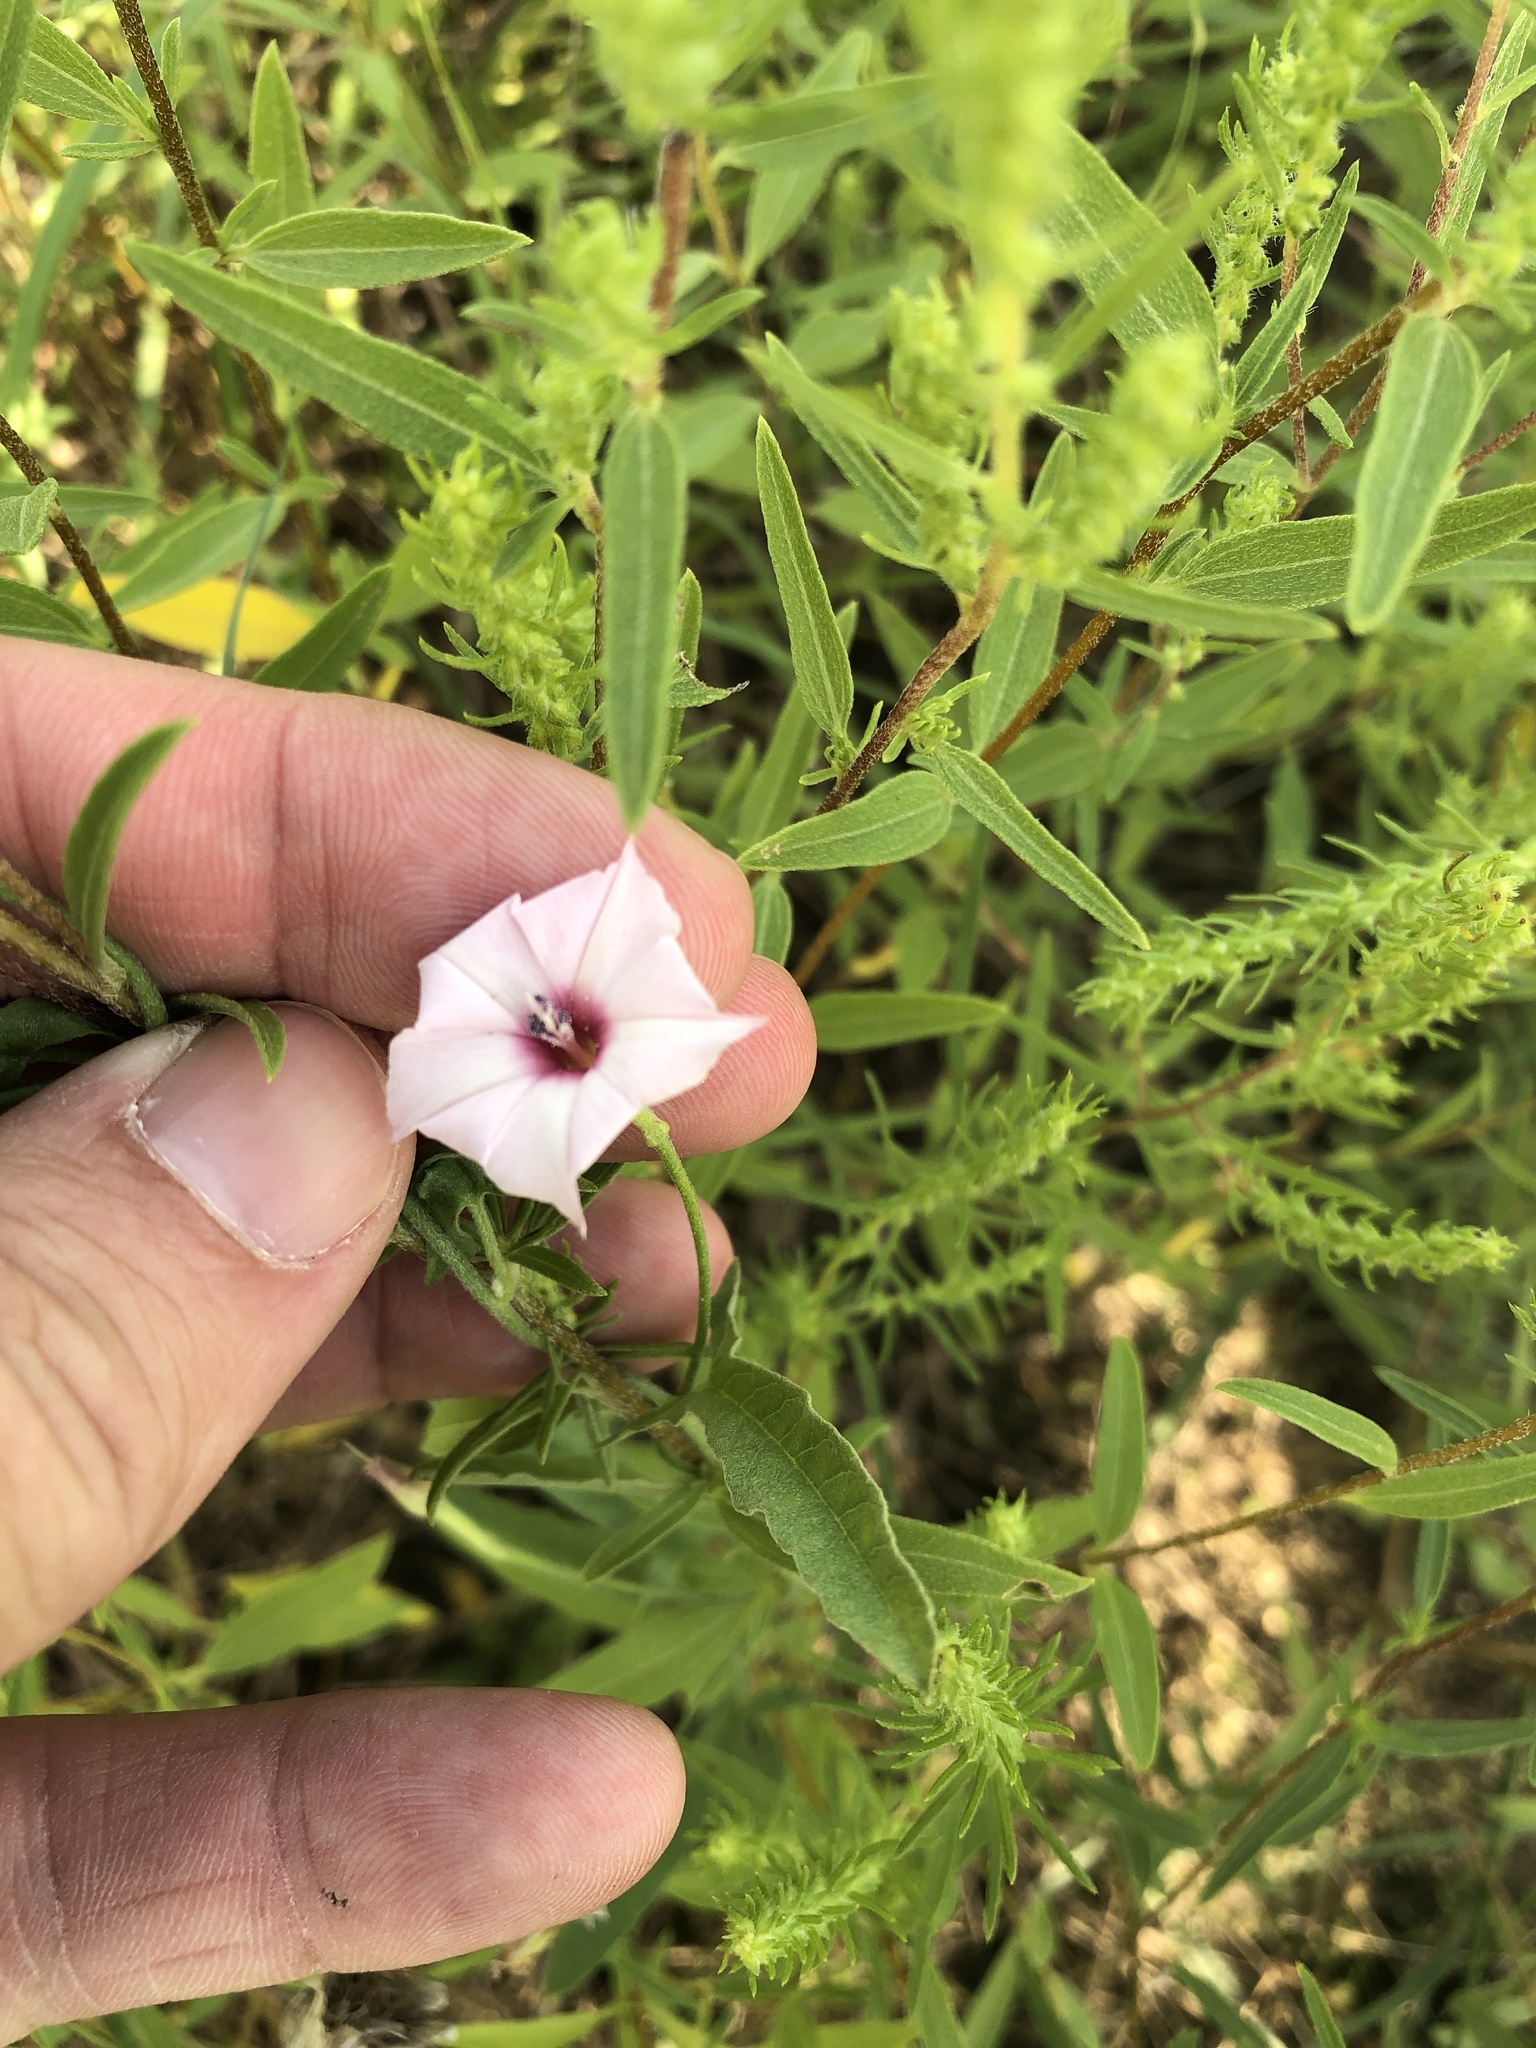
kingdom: Plantae
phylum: Tracheophyta
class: Magnoliopsida
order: Solanales
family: Convolvulaceae
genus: Convolvulus
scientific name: Convolvulus equitans
